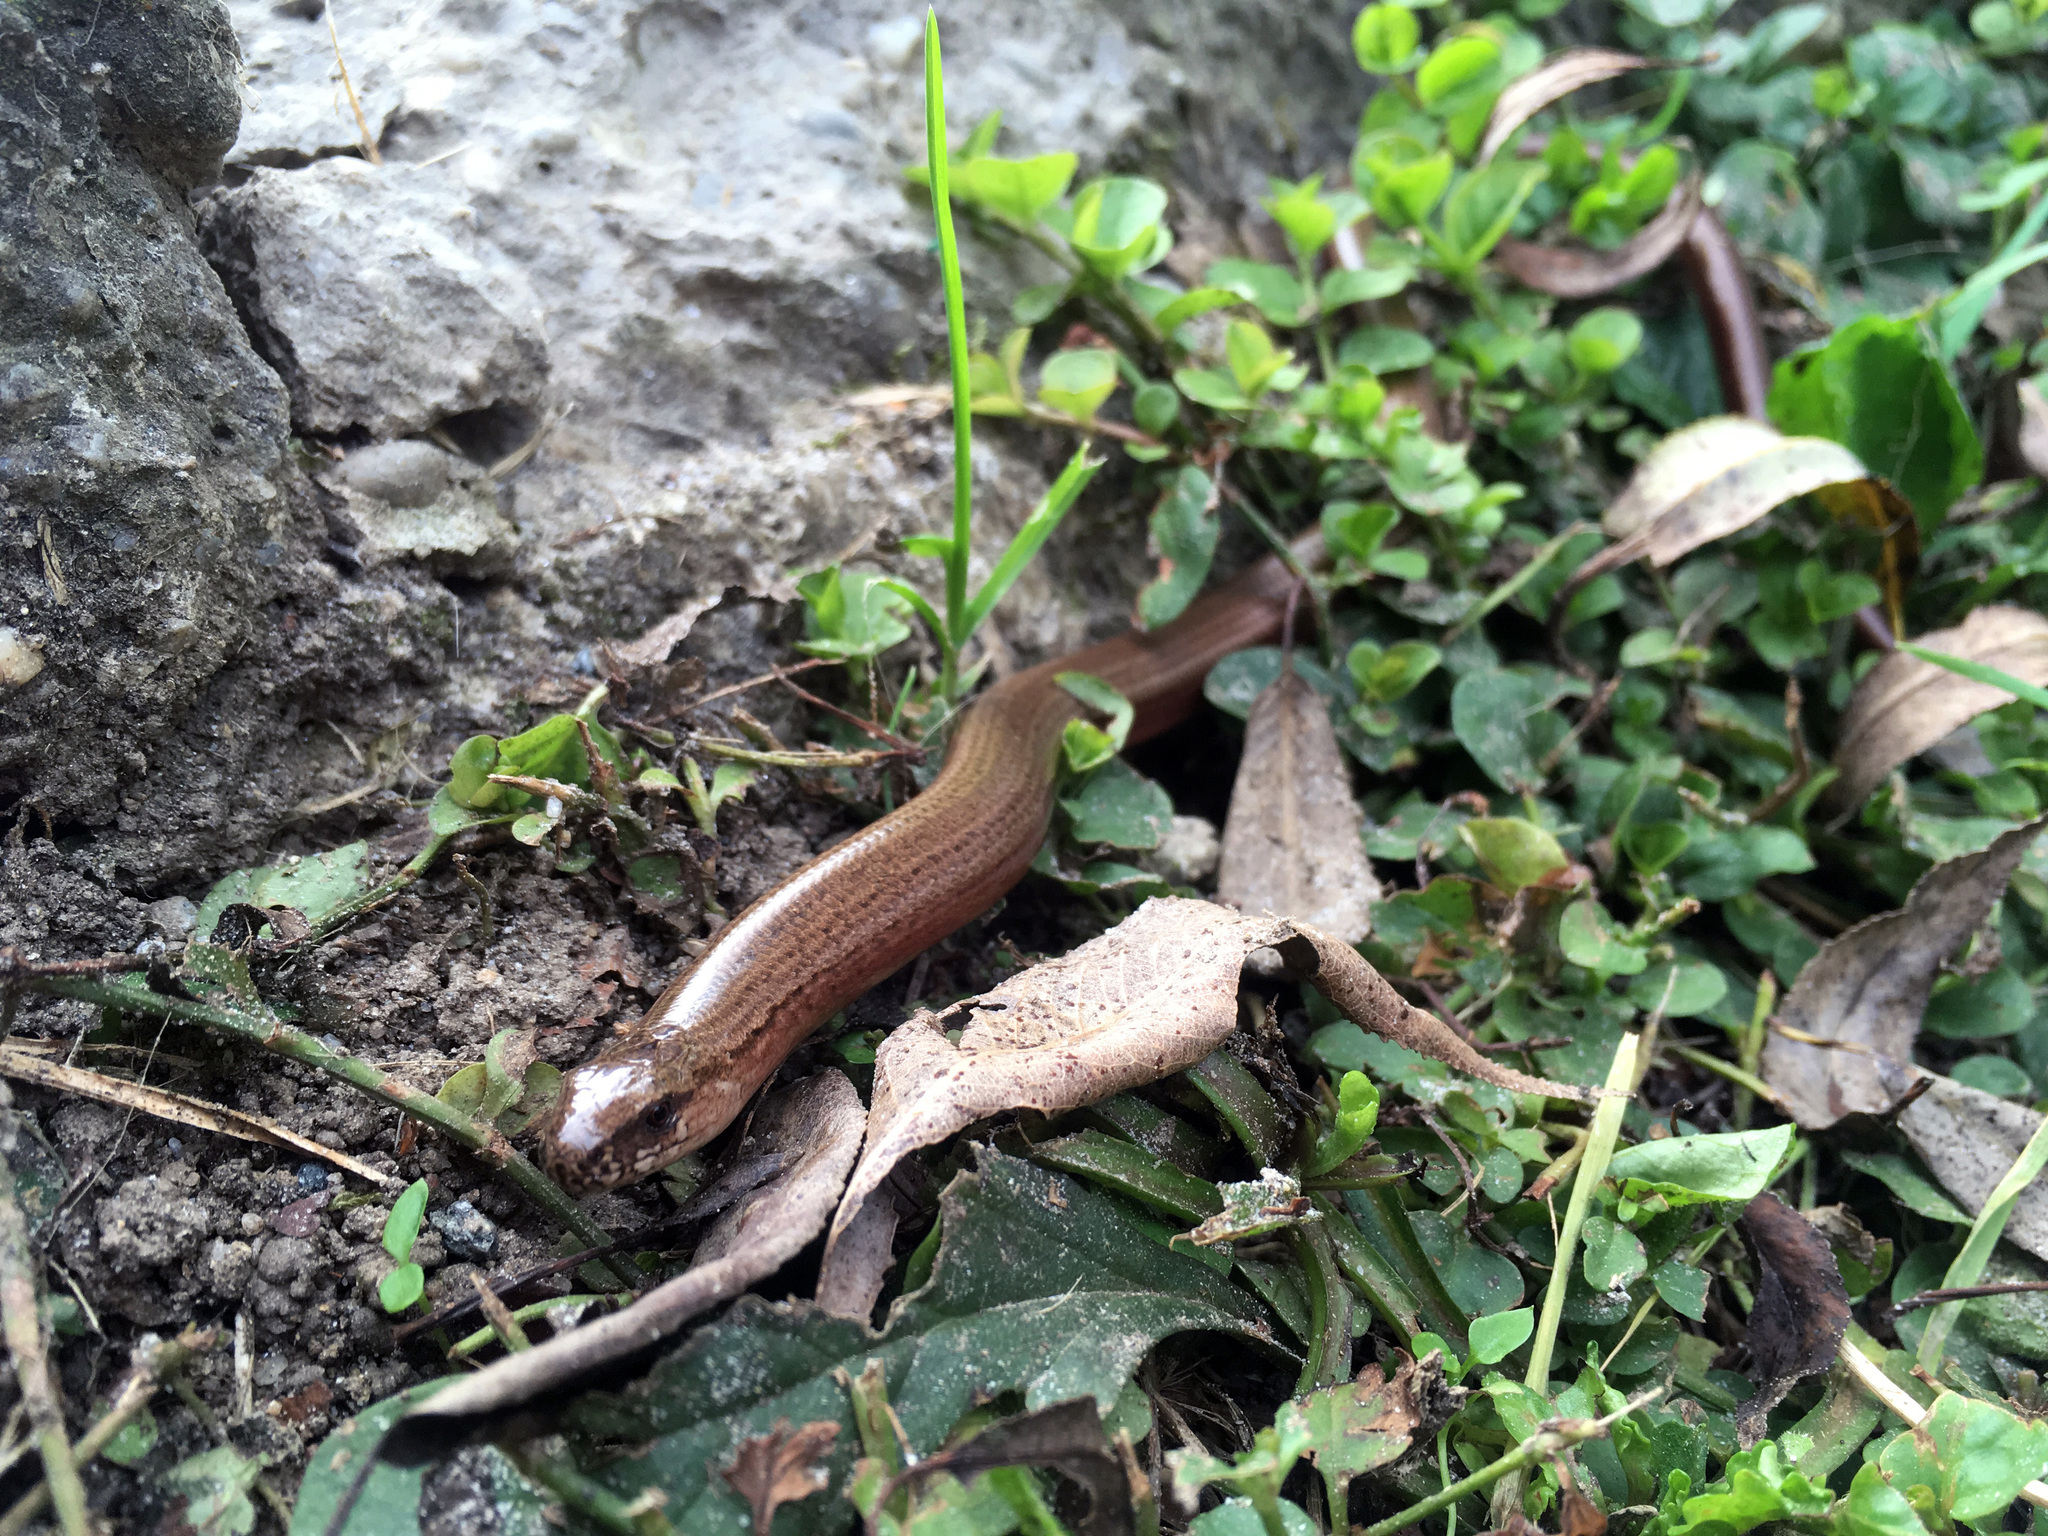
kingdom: Animalia
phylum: Chordata
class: Squamata
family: Anguidae
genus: Anguis
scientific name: Anguis fragilis
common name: Slow worm
